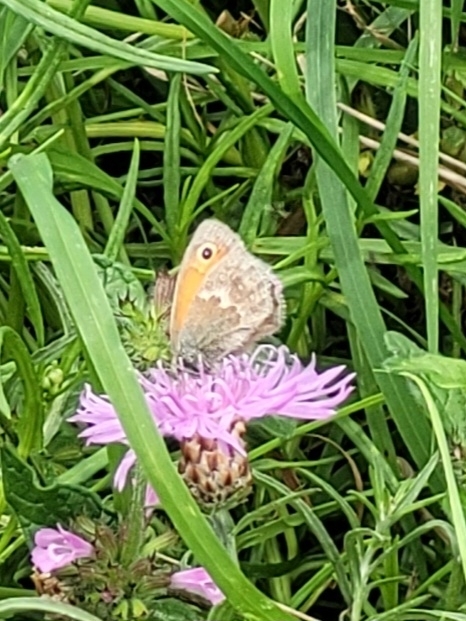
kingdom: Animalia
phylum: Arthropoda
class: Insecta
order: Lepidoptera
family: Nymphalidae
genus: Coenonympha
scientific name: Coenonympha pamphilus
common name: Small heath
